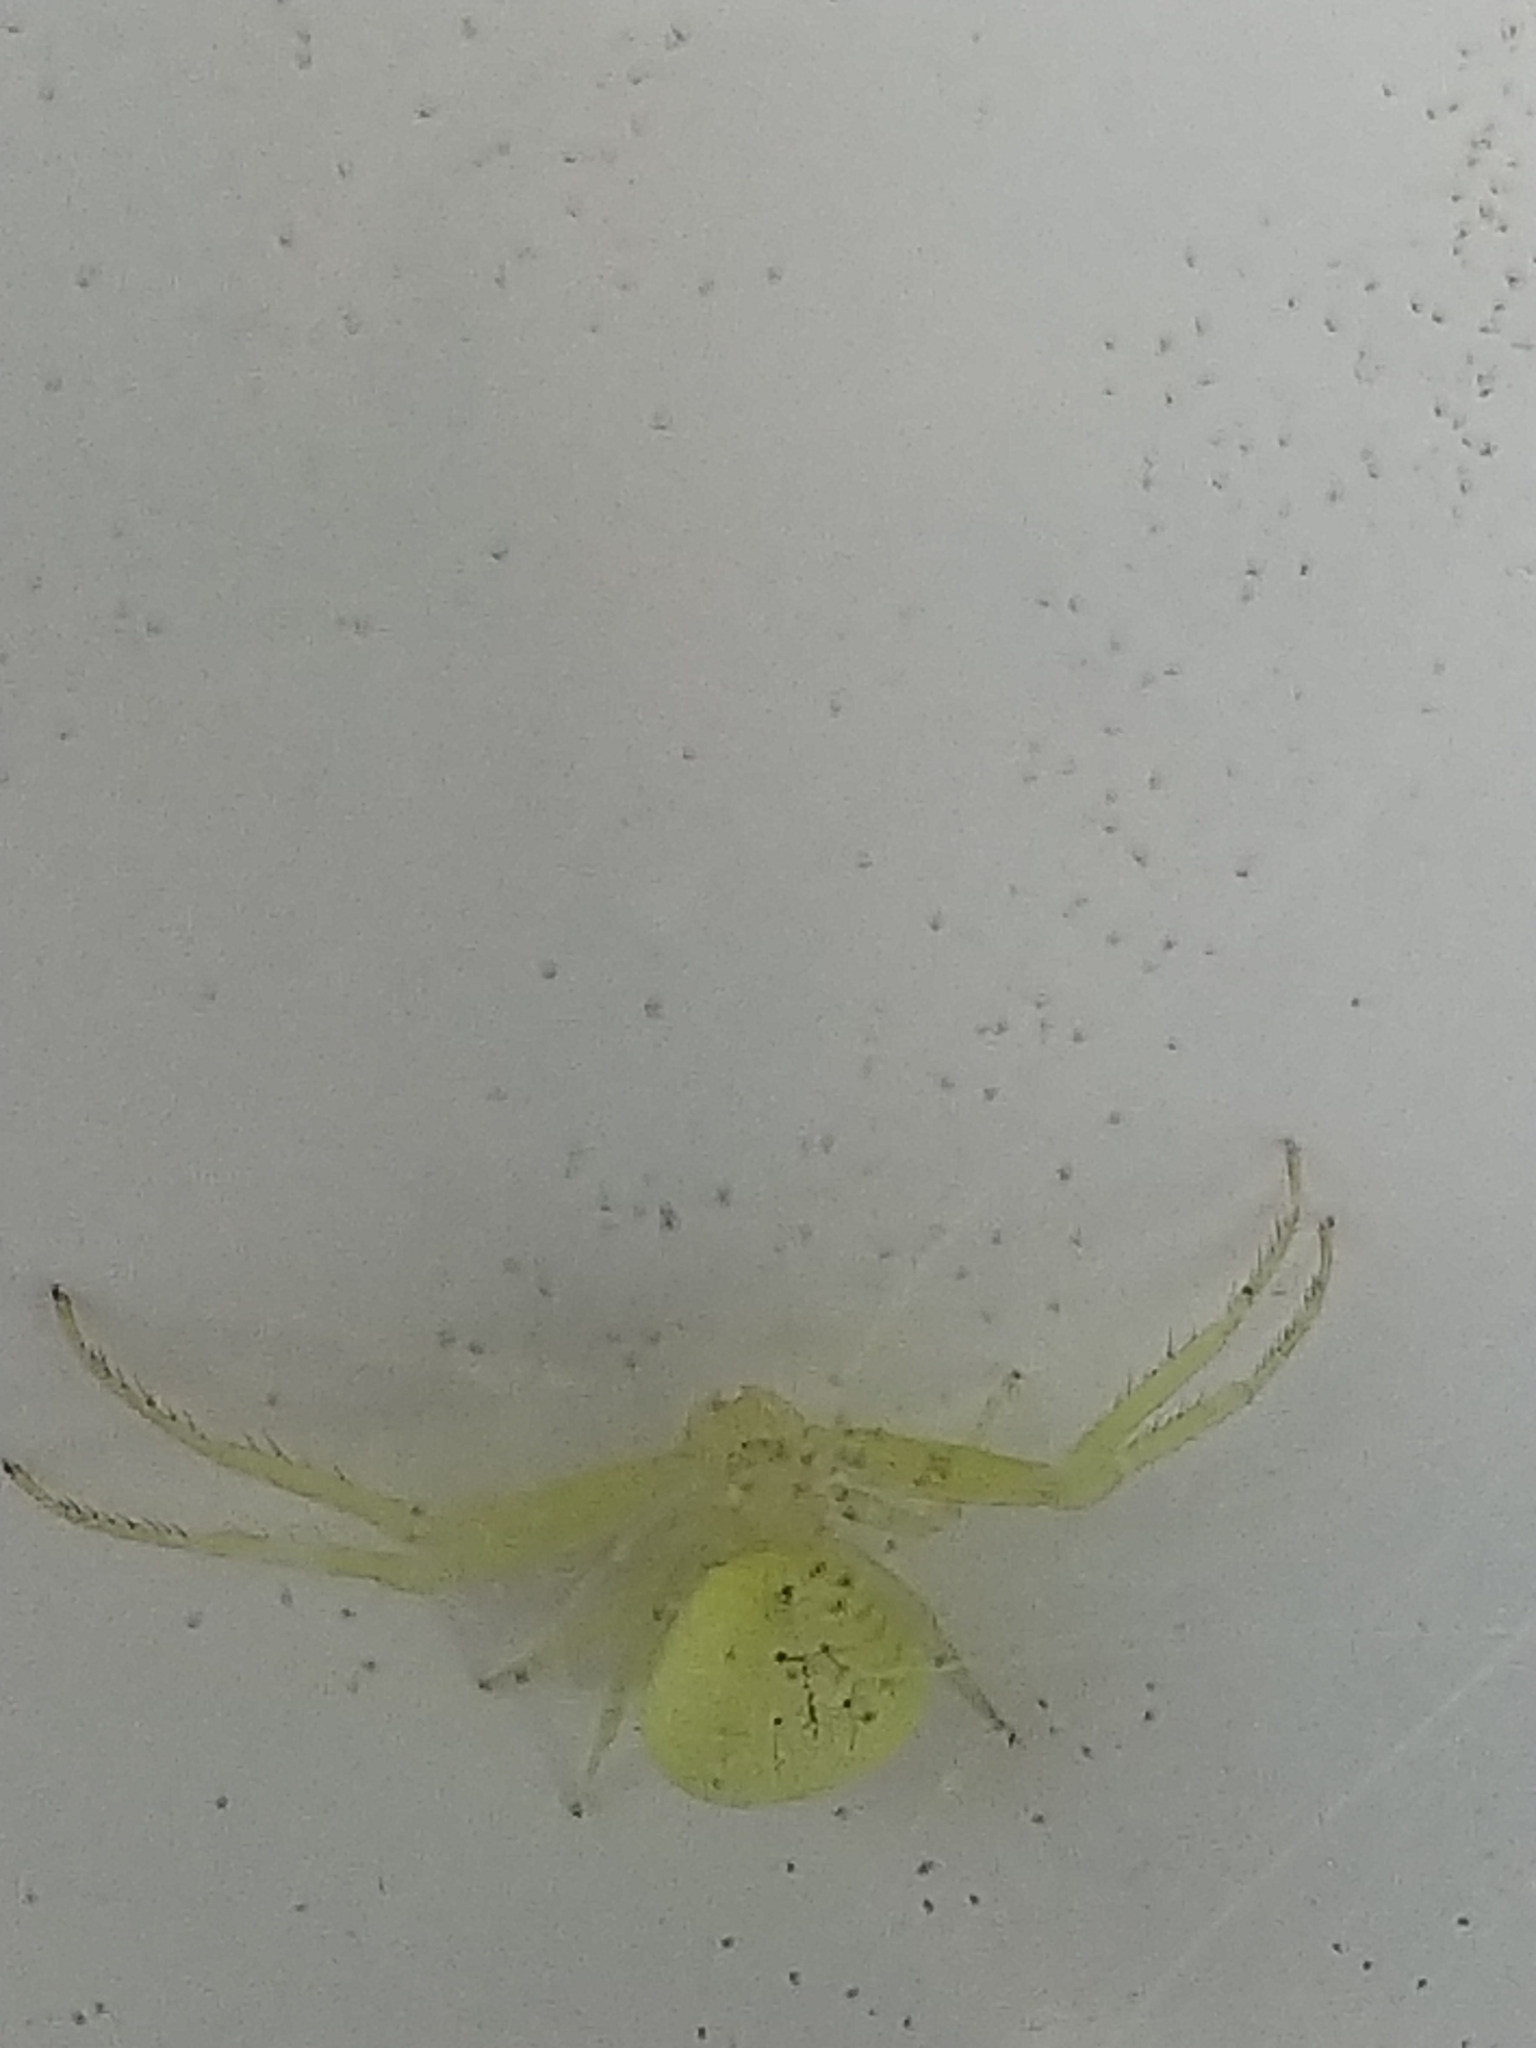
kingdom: Animalia
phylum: Arthropoda
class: Arachnida
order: Araneae
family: Thomisidae
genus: Misumessus
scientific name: Misumessus oblongus
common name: American green crab spider
